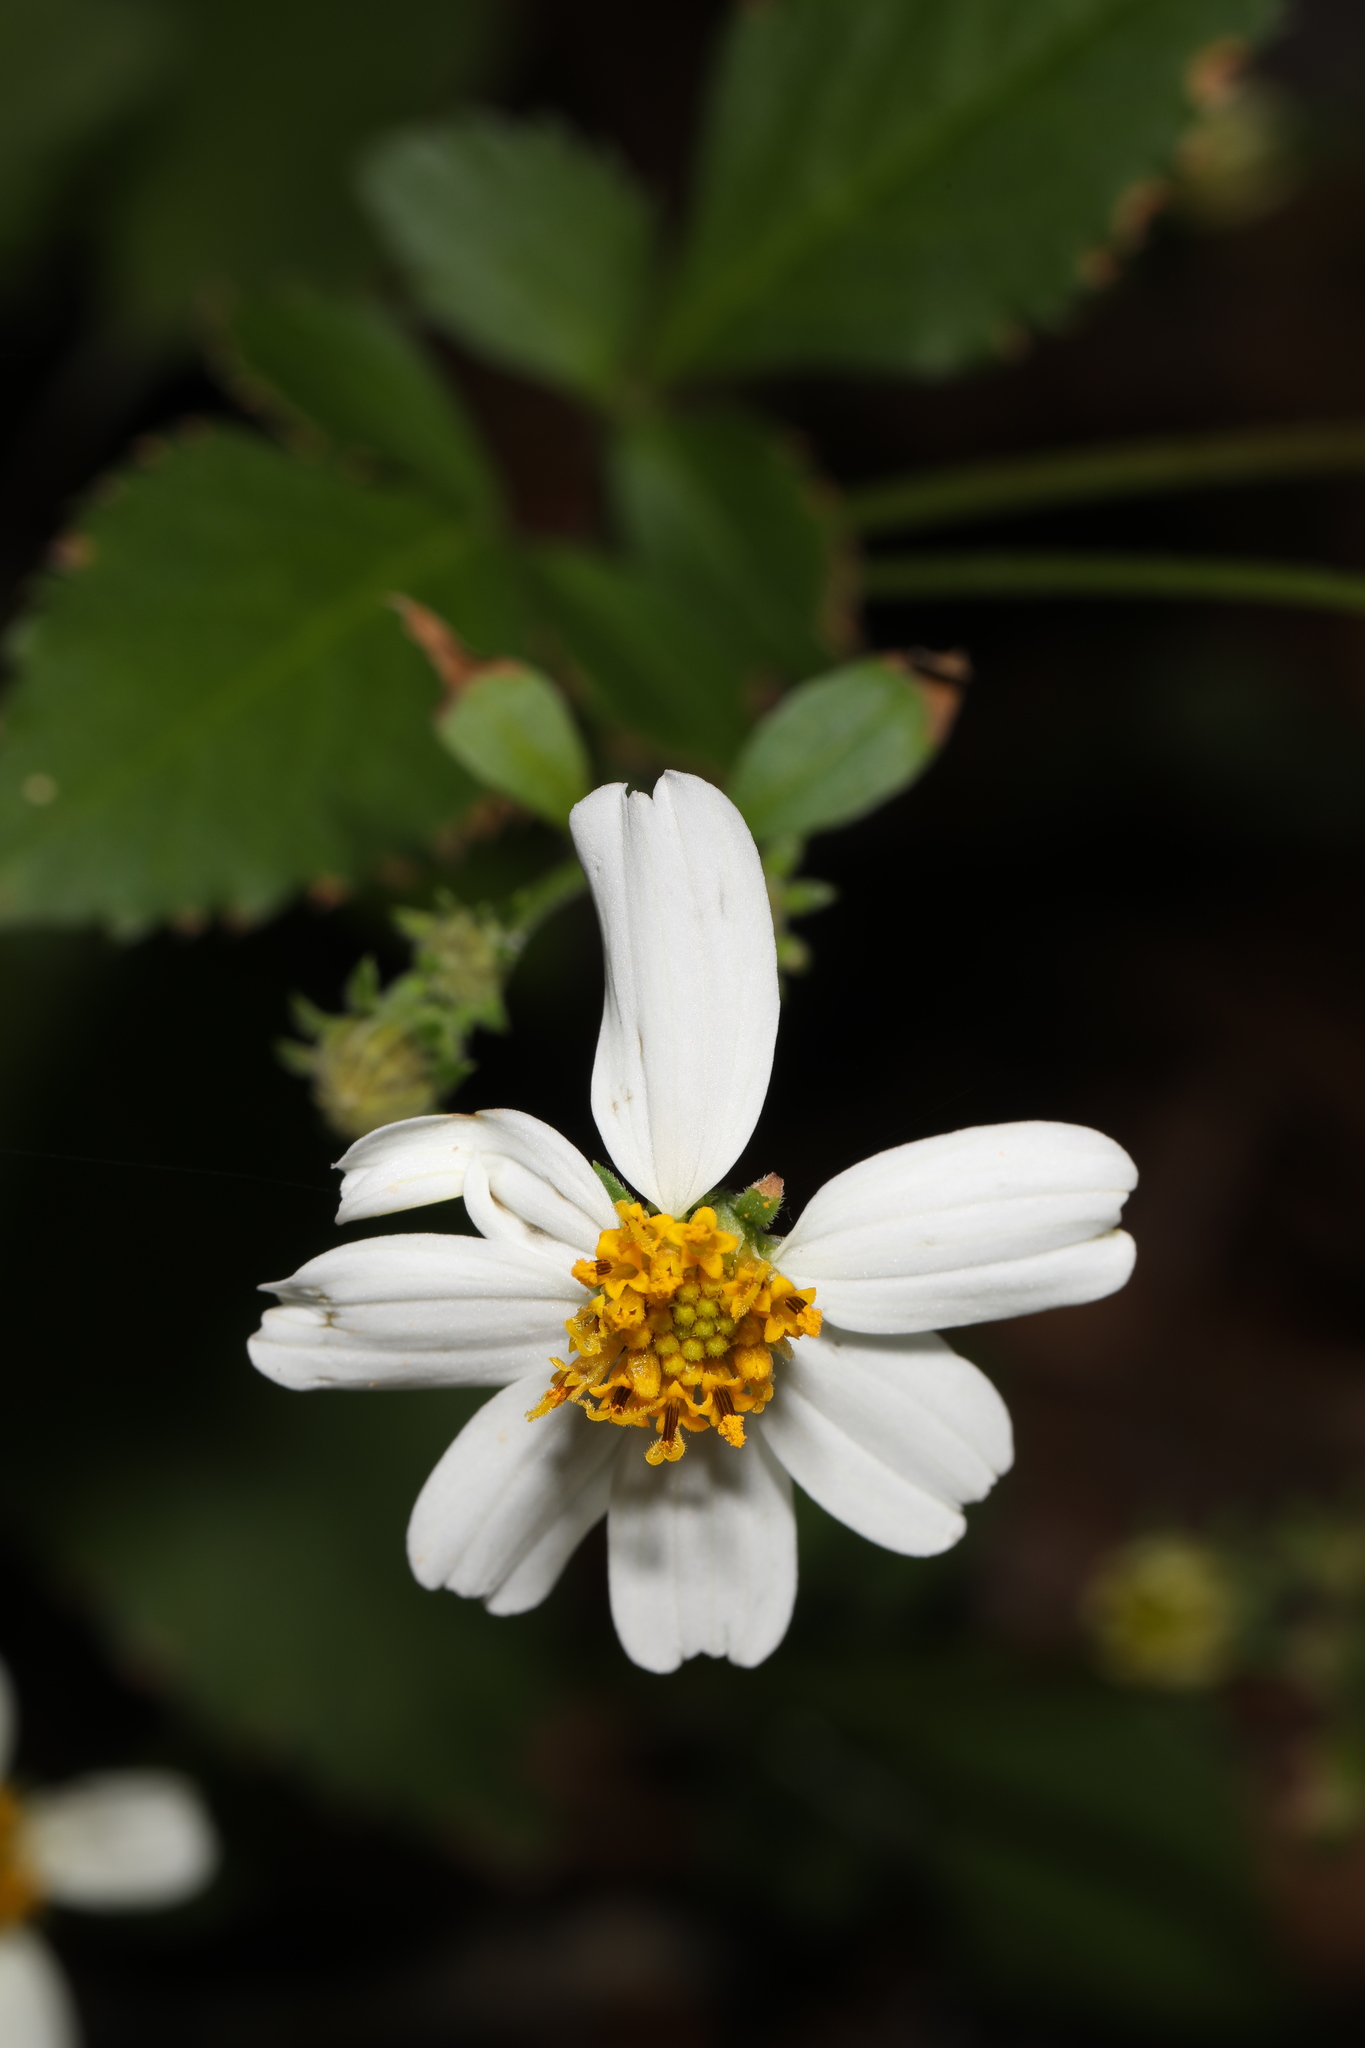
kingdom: Plantae
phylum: Tracheophyta
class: Magnoliopsida
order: Asterales
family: Asteraceae
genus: Bidens
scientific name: Bidens alba
